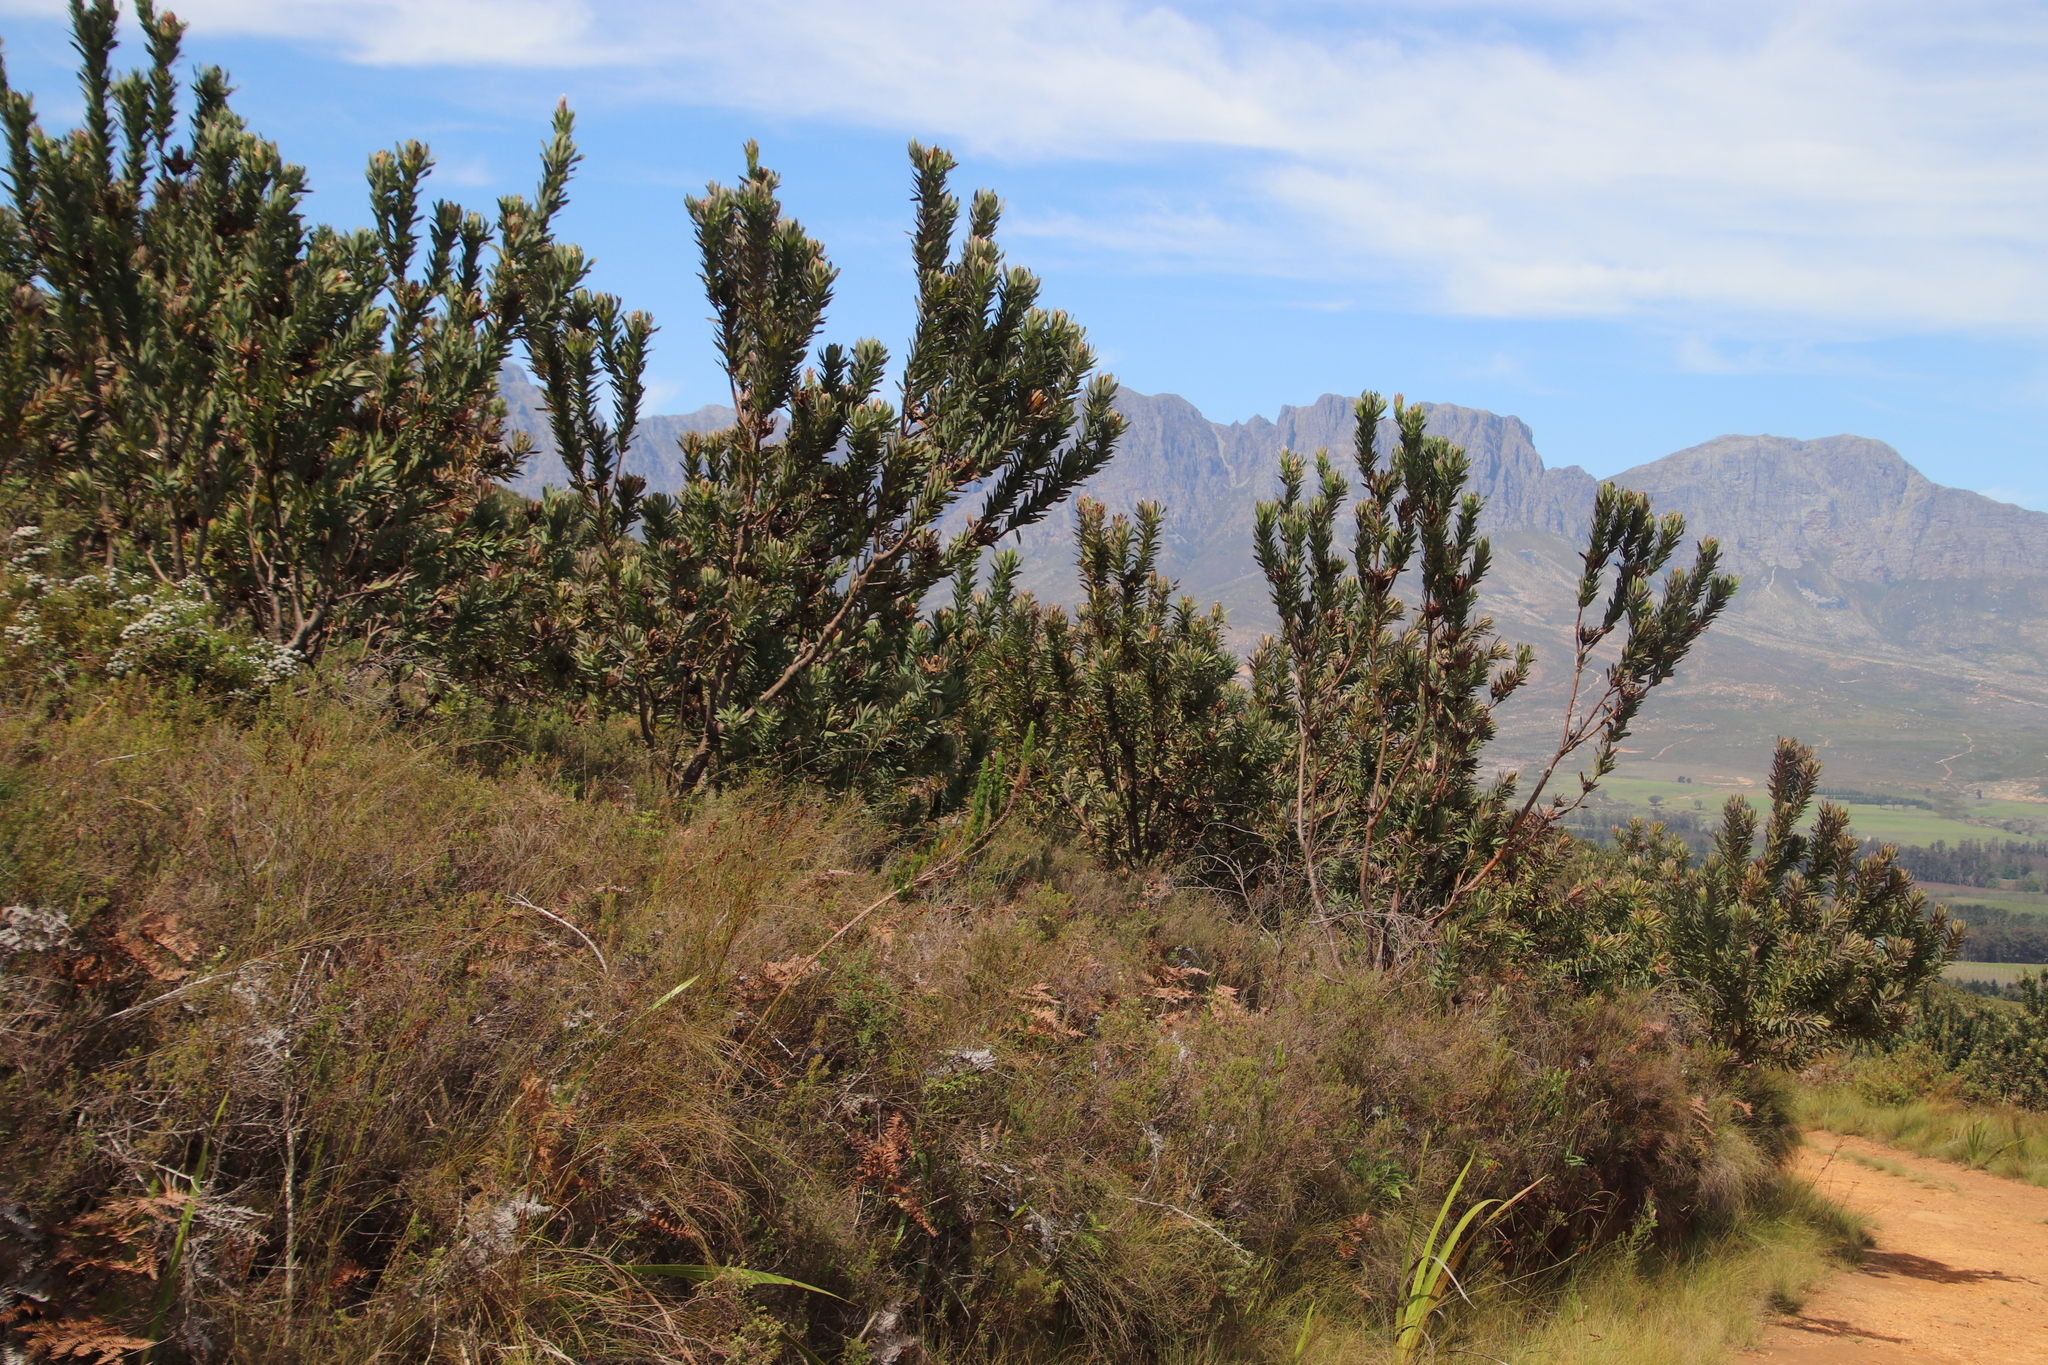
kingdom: Plantae
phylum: Tracheophyta
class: Magnoliopsida
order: Proteales
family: Proteaceae
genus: Protea
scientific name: Protea coronata
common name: Green sugarbush
